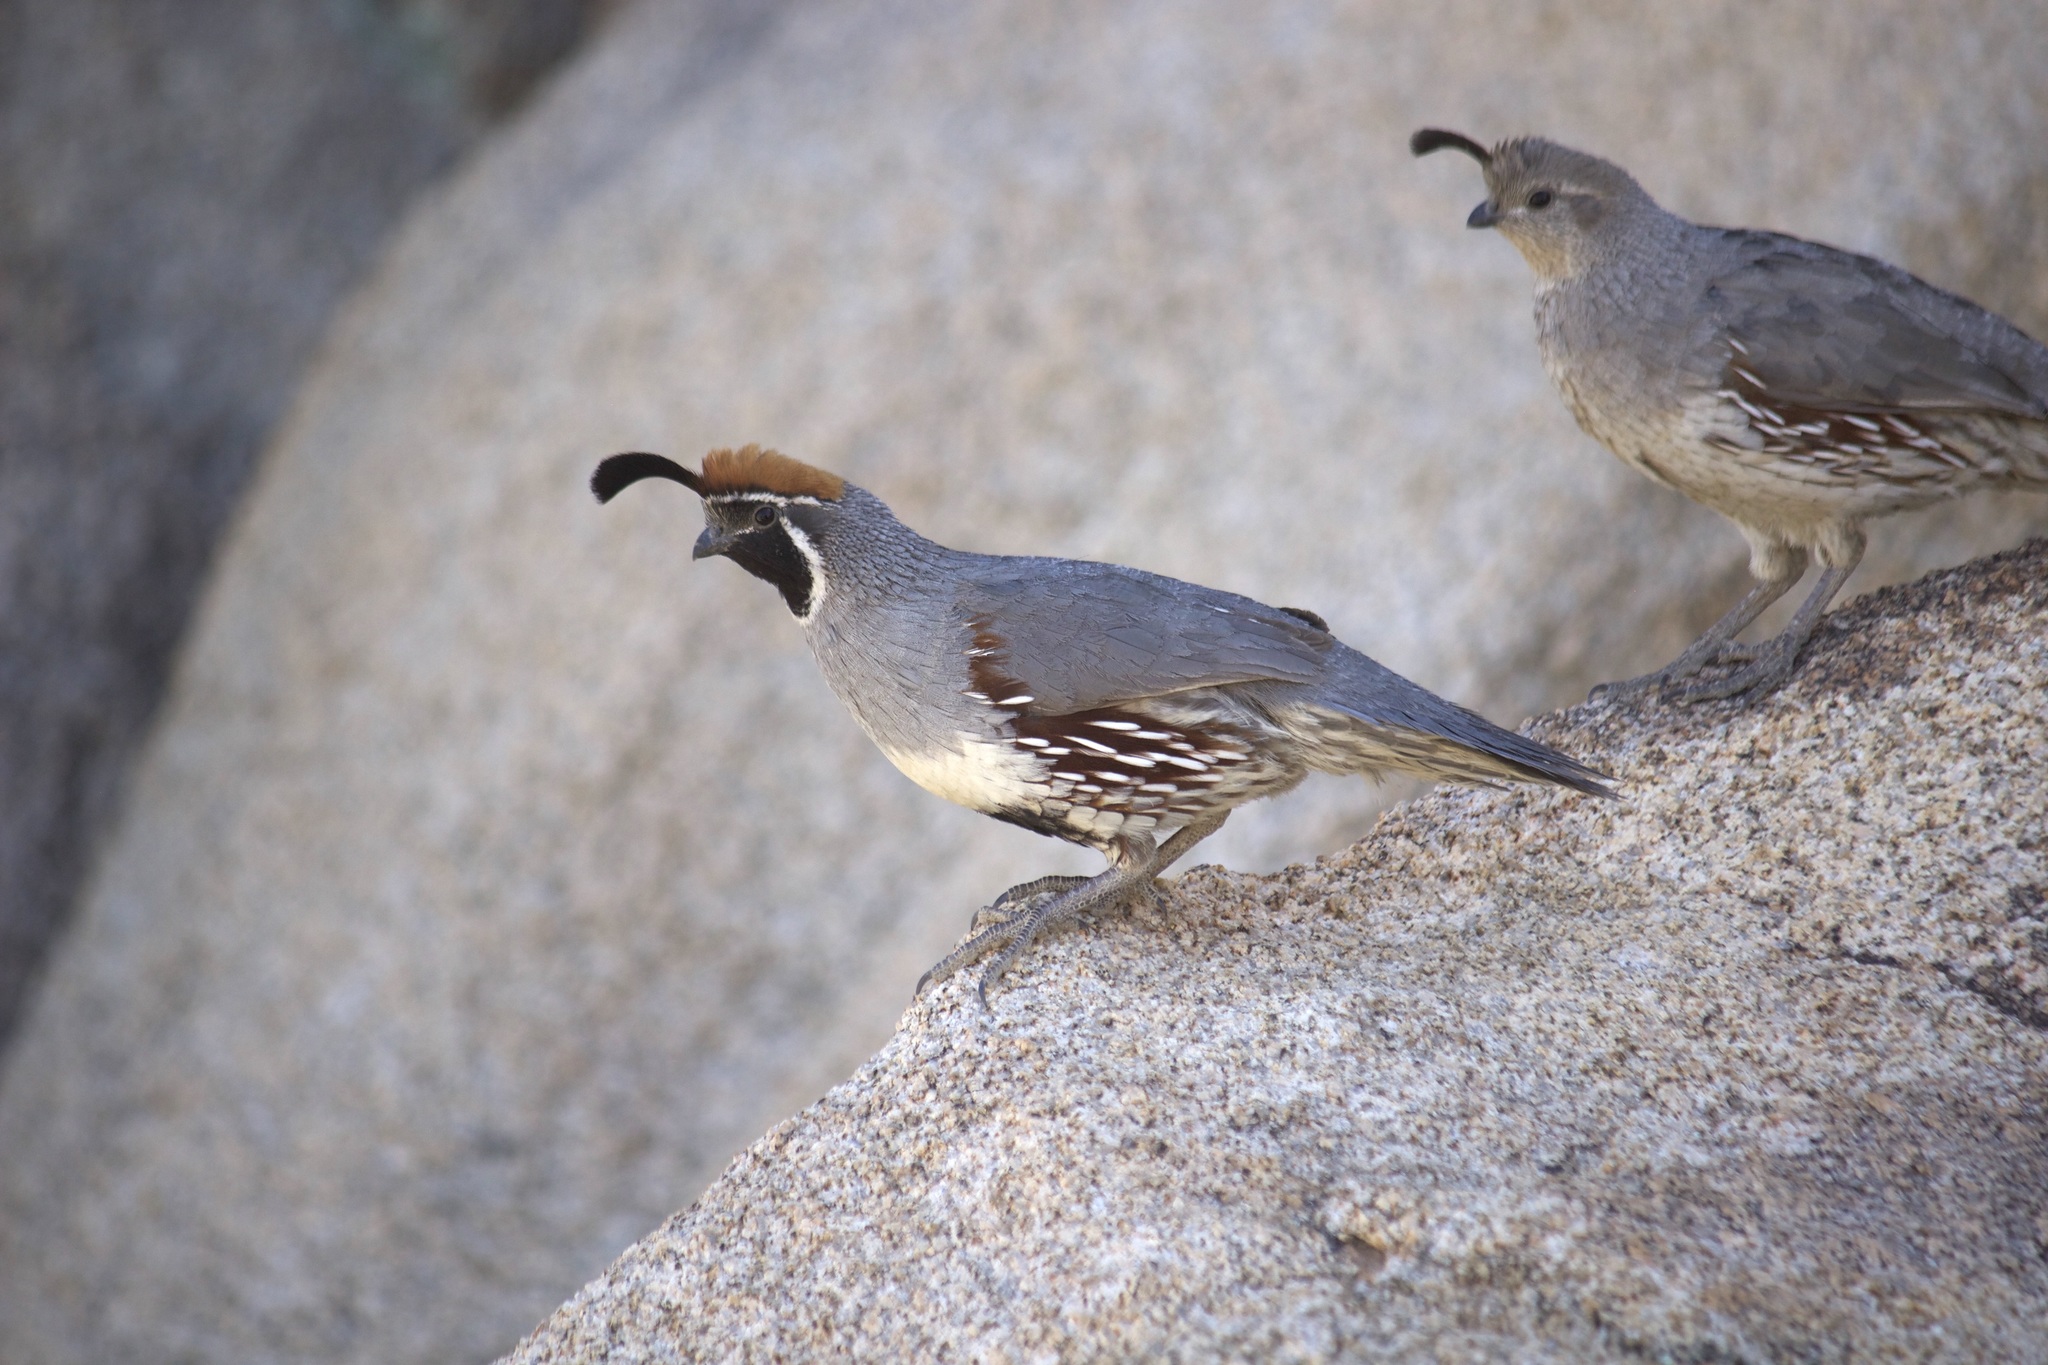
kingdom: Animalia
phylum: Chordata
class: Aves
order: Galliformes
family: Odontophoridae
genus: Callipepla
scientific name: Callipepla gambelii
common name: Gambel's quail
